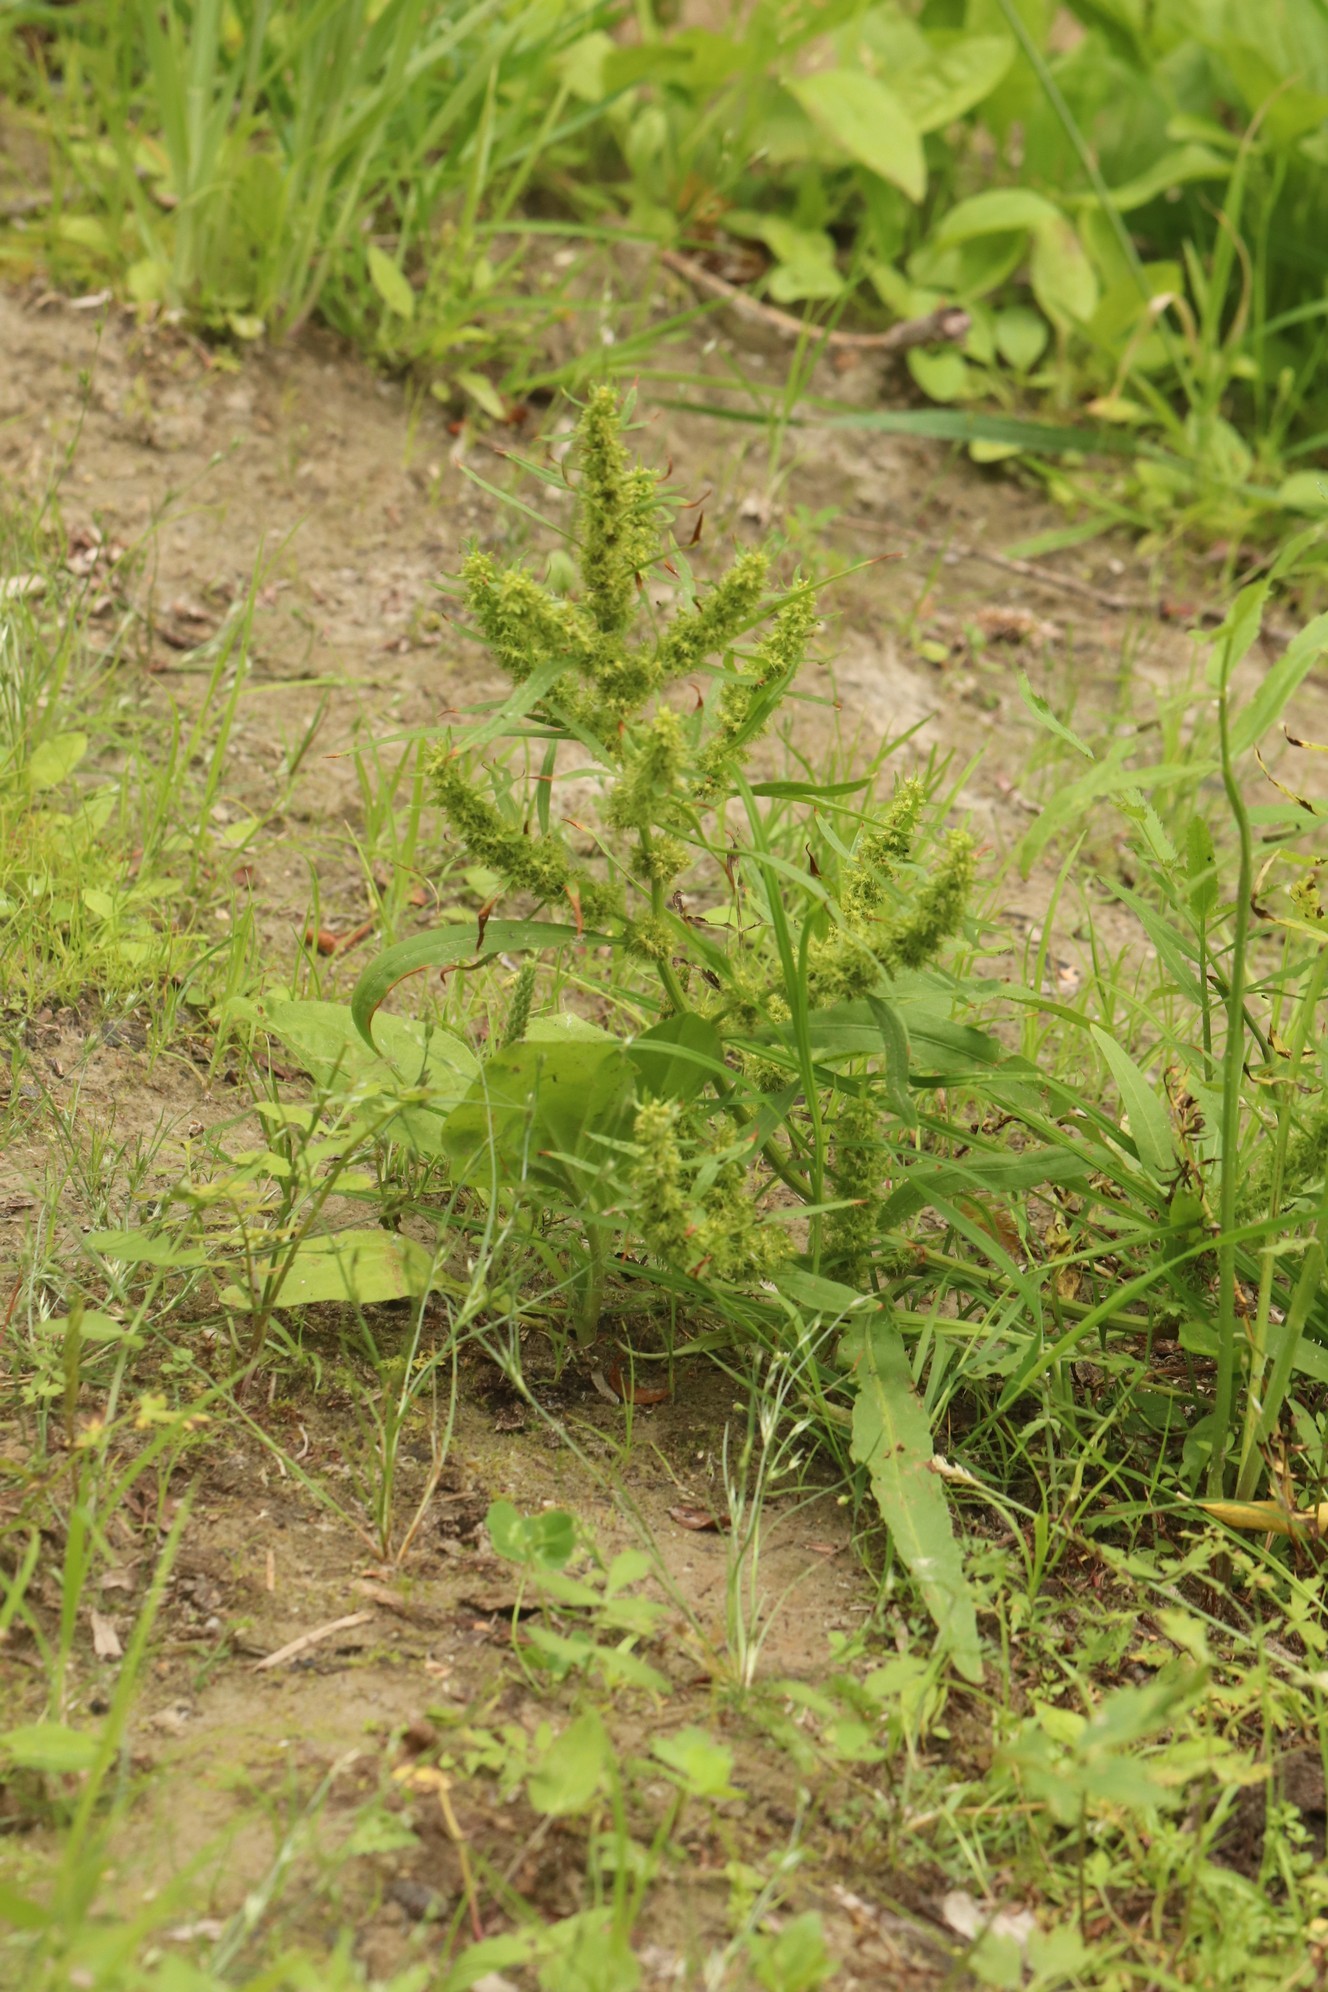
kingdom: Plantae
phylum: Tracheophyta
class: Magnoliopsida
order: Caryophyllales
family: Polygonaceae
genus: Rumex
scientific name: Rumex maritimus
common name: Golden dock
